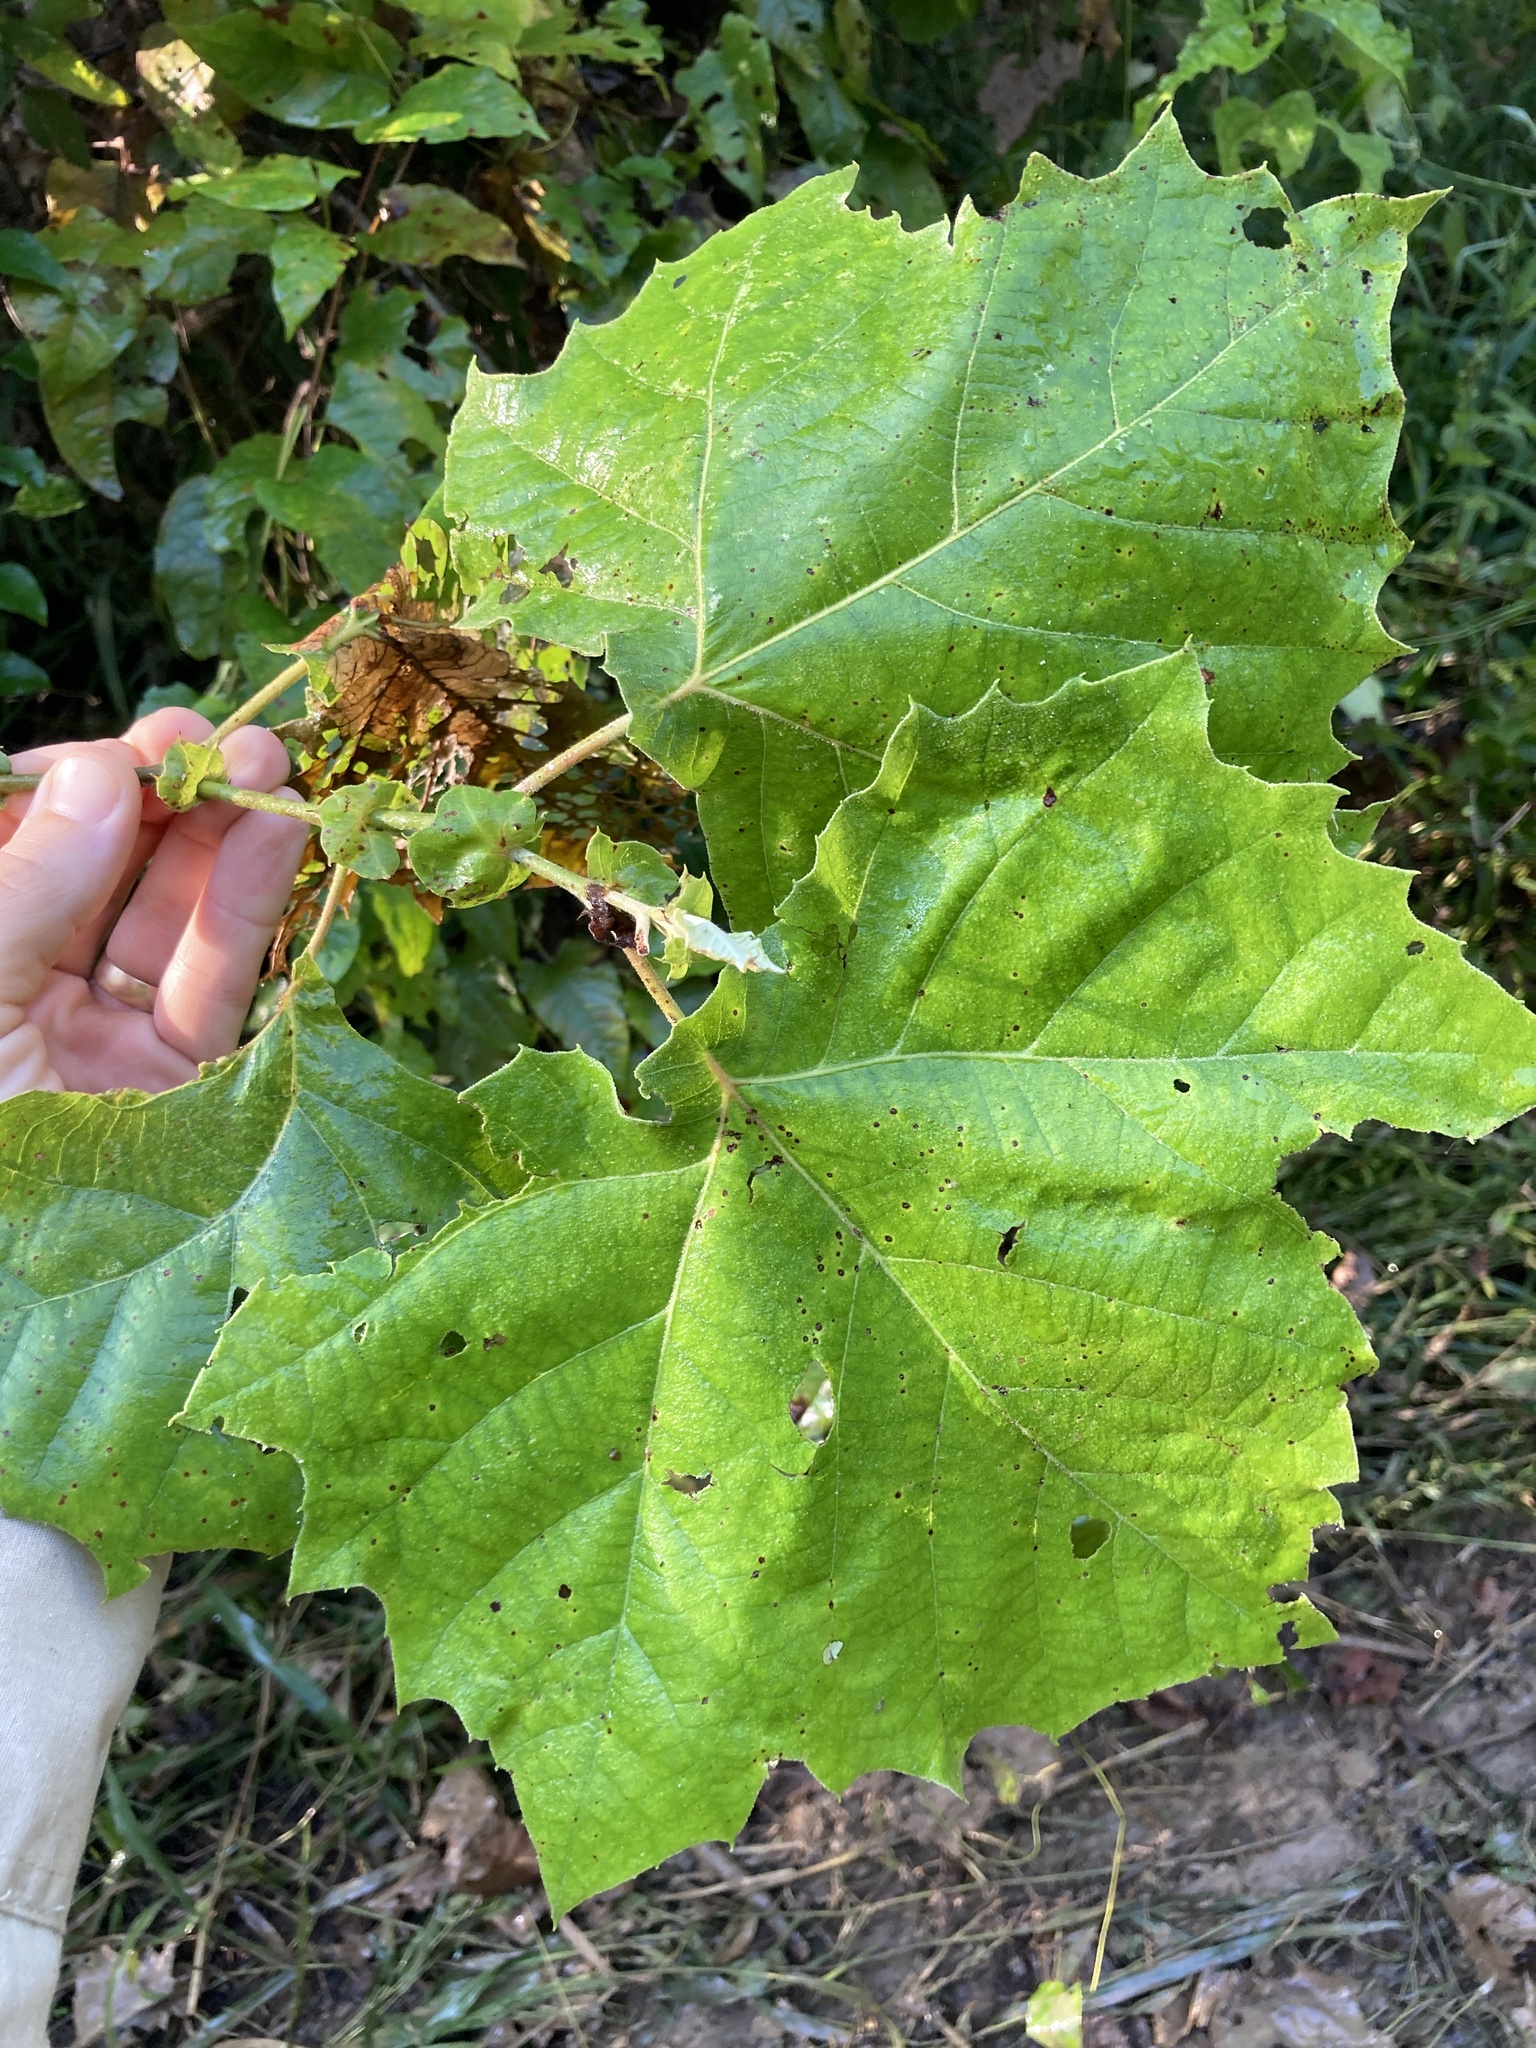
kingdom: Plantae
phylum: Tracheophyta
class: Magnoliopsida
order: Proteales
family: Platanaceae
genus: Platanus
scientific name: Platanus occidentalis
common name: American sycamore
